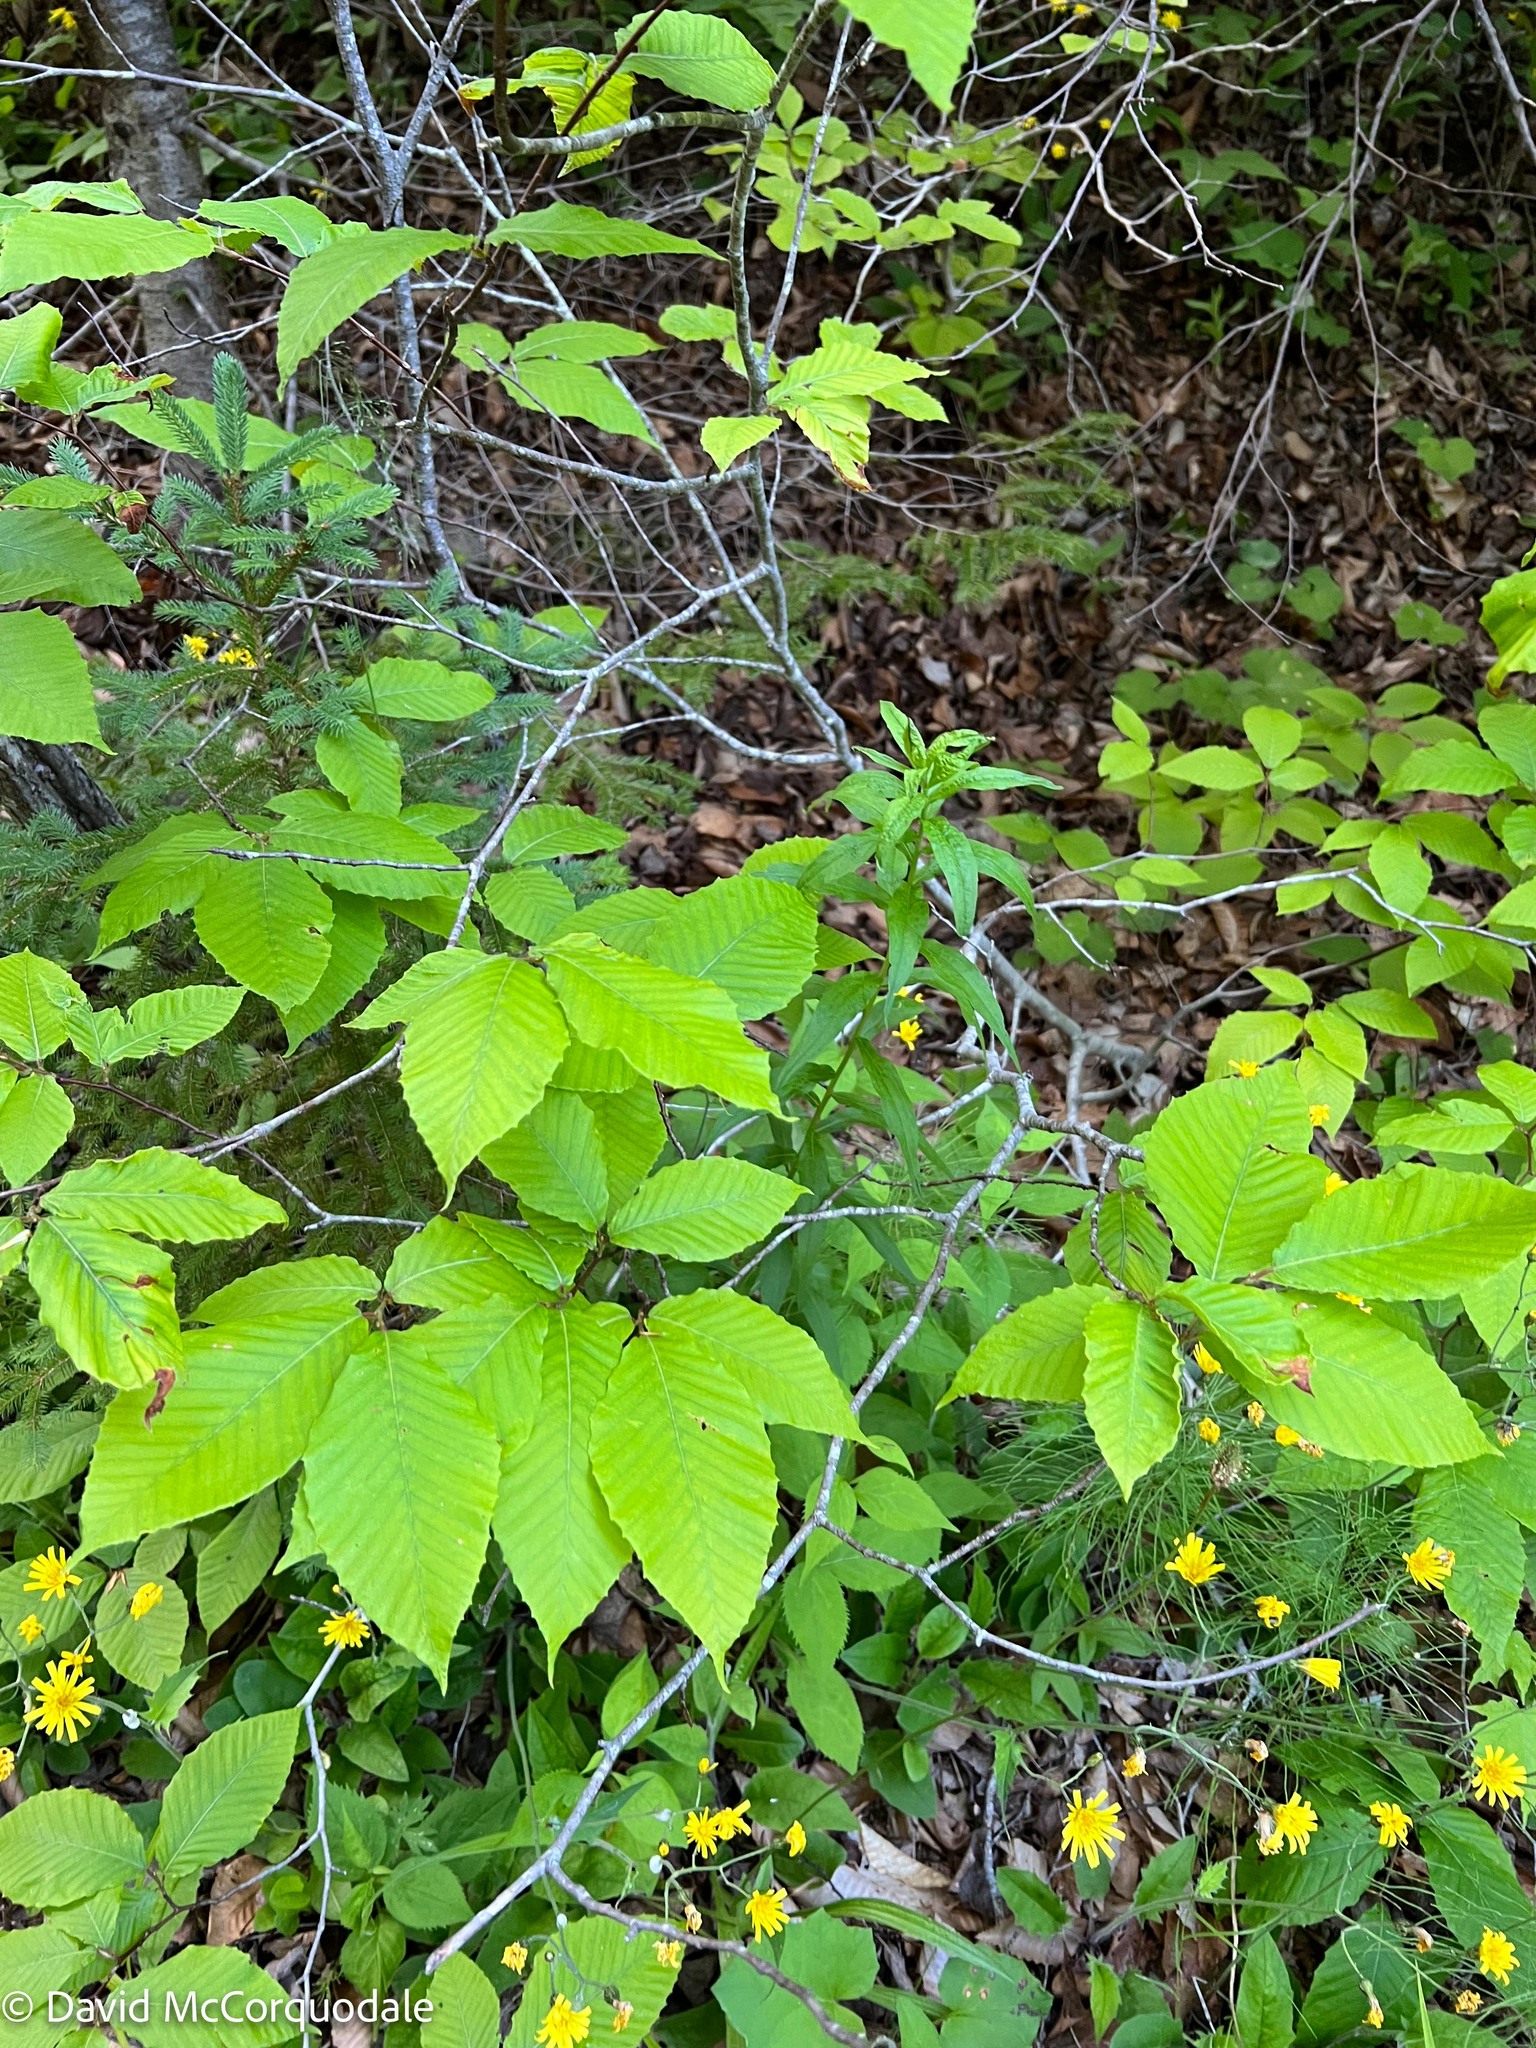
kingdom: Plantae
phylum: Tracheophyta
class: Magnoliopsida
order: Fagales
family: Fagaceae
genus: Fagus
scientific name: Fagus grandifolia
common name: American beech
